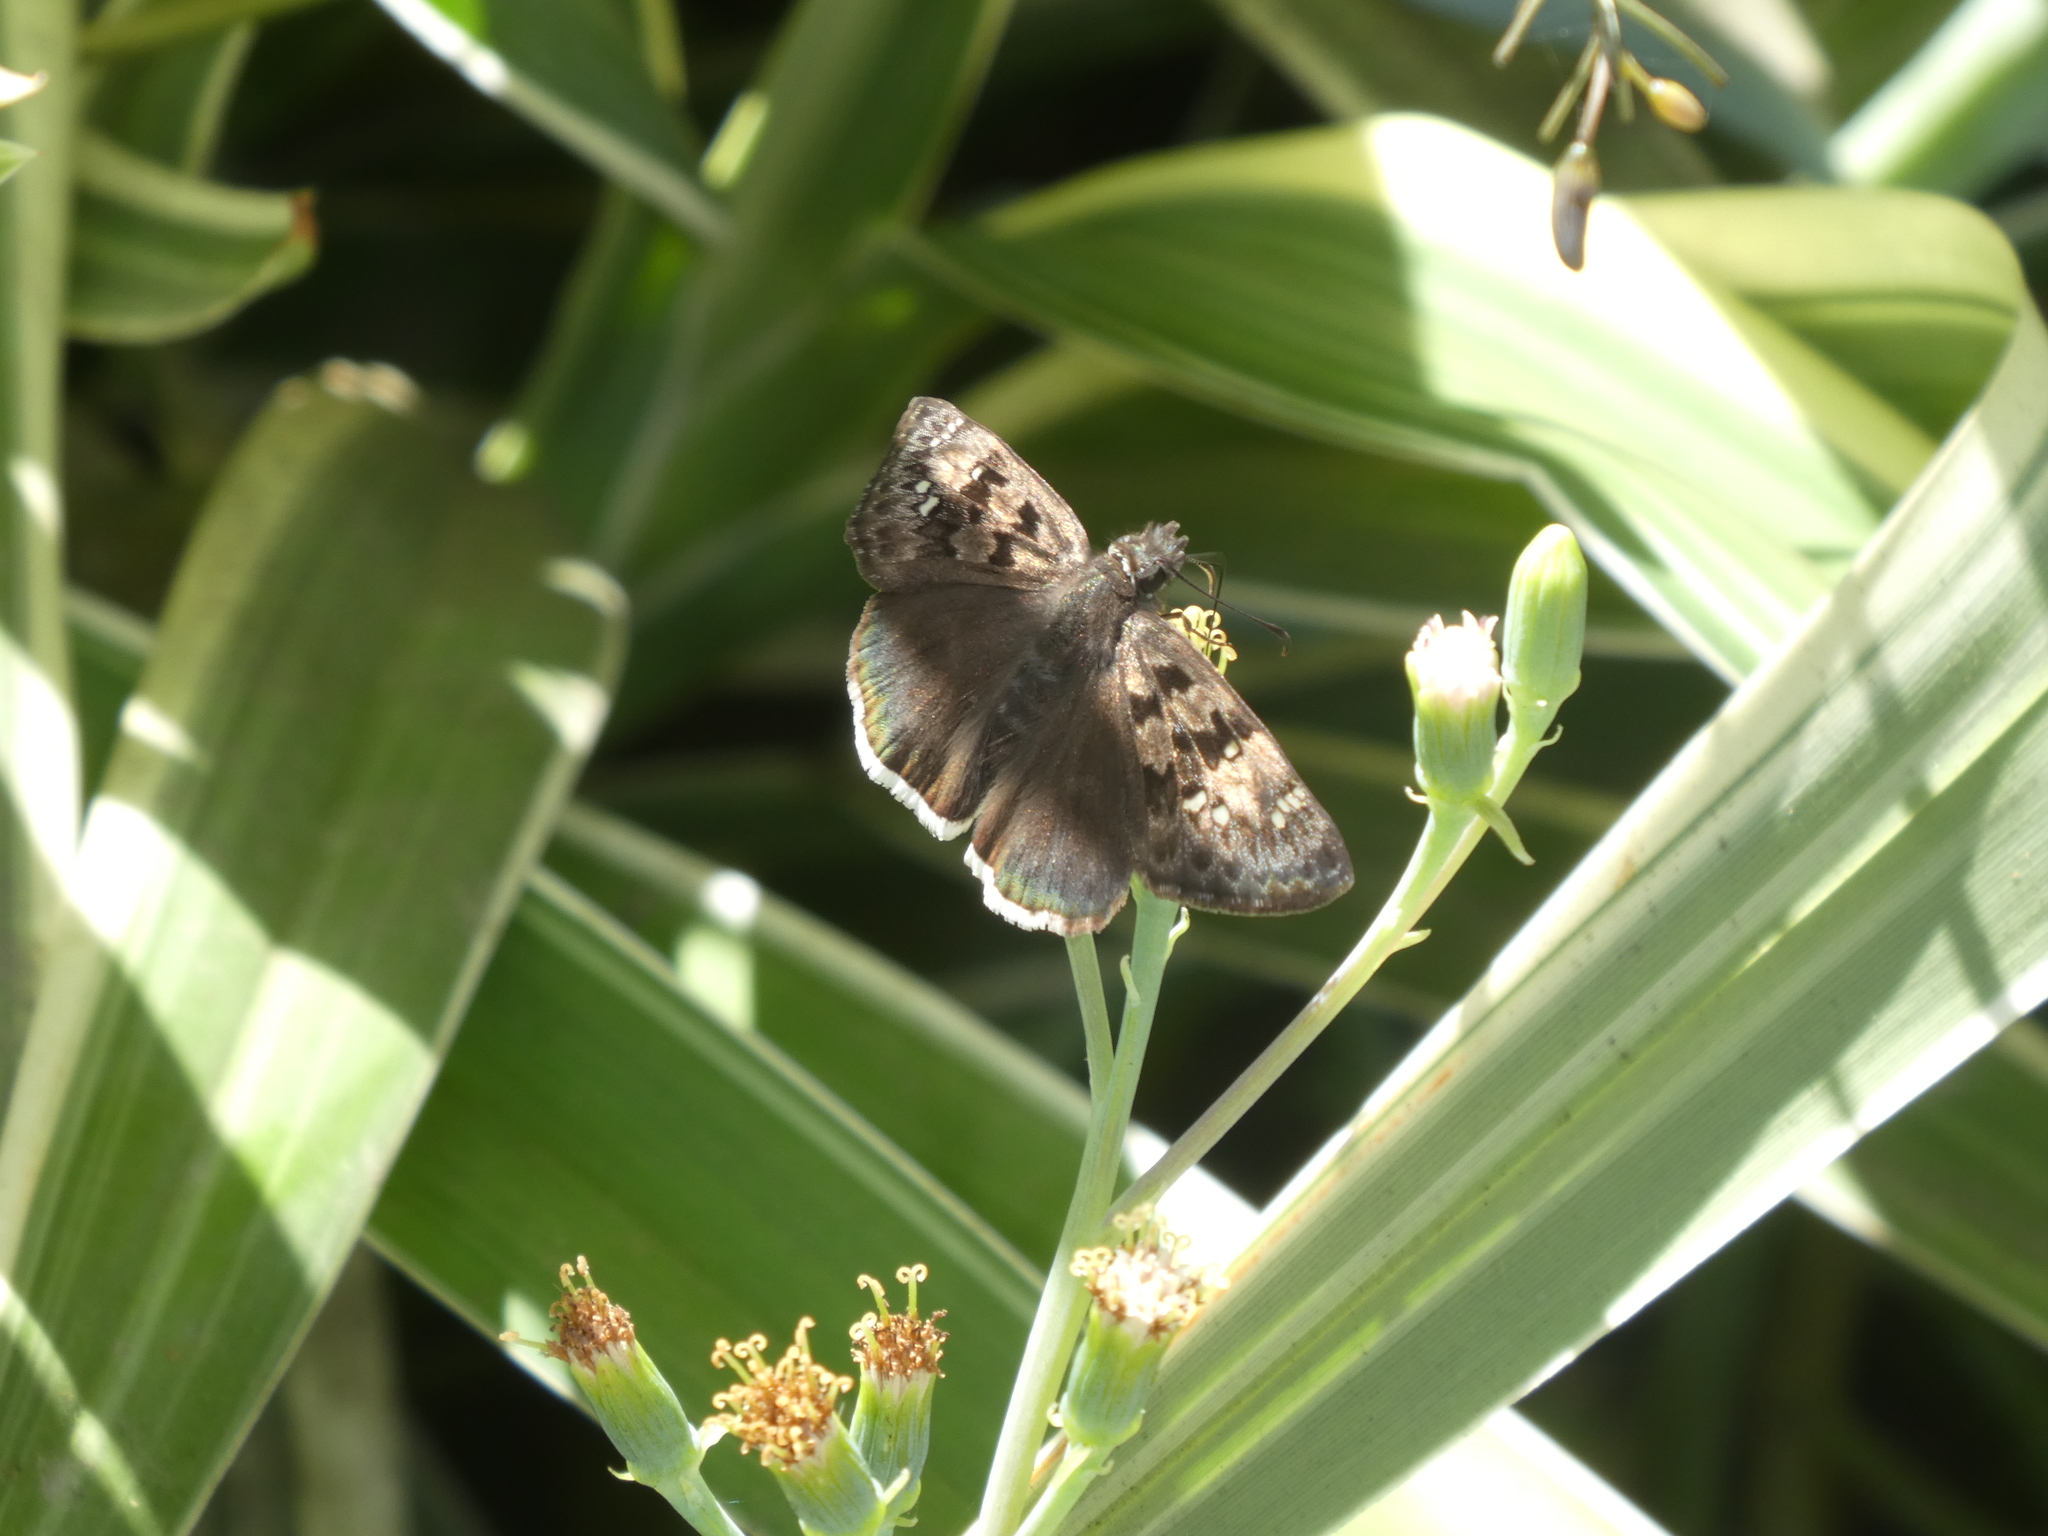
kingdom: Animalia
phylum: Arthropoda
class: Insecta
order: Lepidoptera
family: Hesperiidae
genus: Erynnis
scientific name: Erynnis tristis
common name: Mournful duskywing
